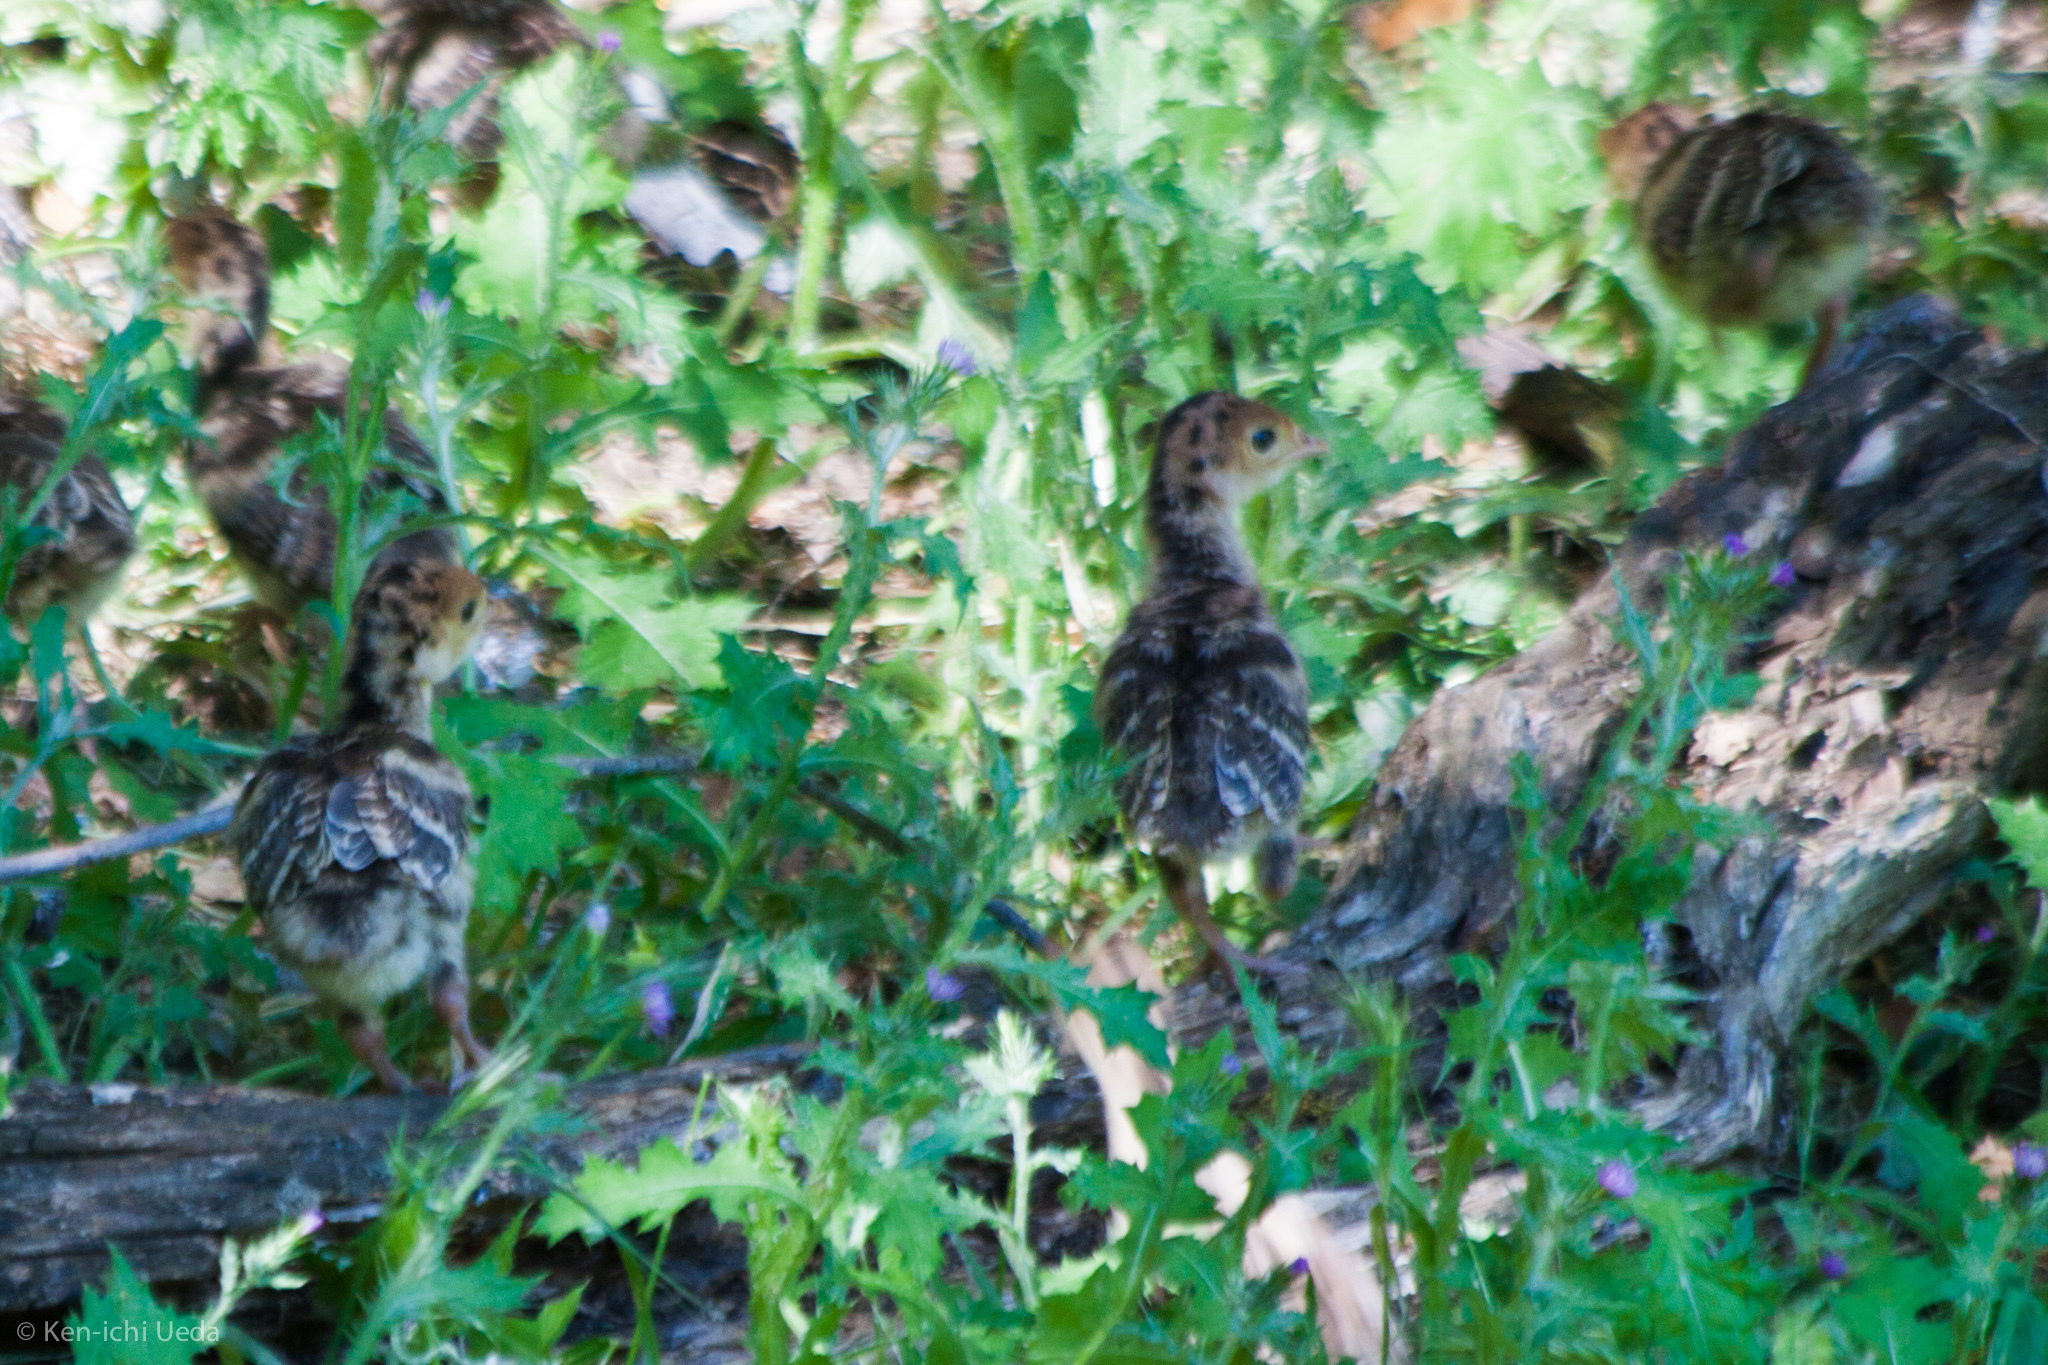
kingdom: Animalia
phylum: Chordata
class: Aves
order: Galliformes
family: Phasianidae
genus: Meleagris
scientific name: Meleagris gallopavo
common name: Wild turkey
